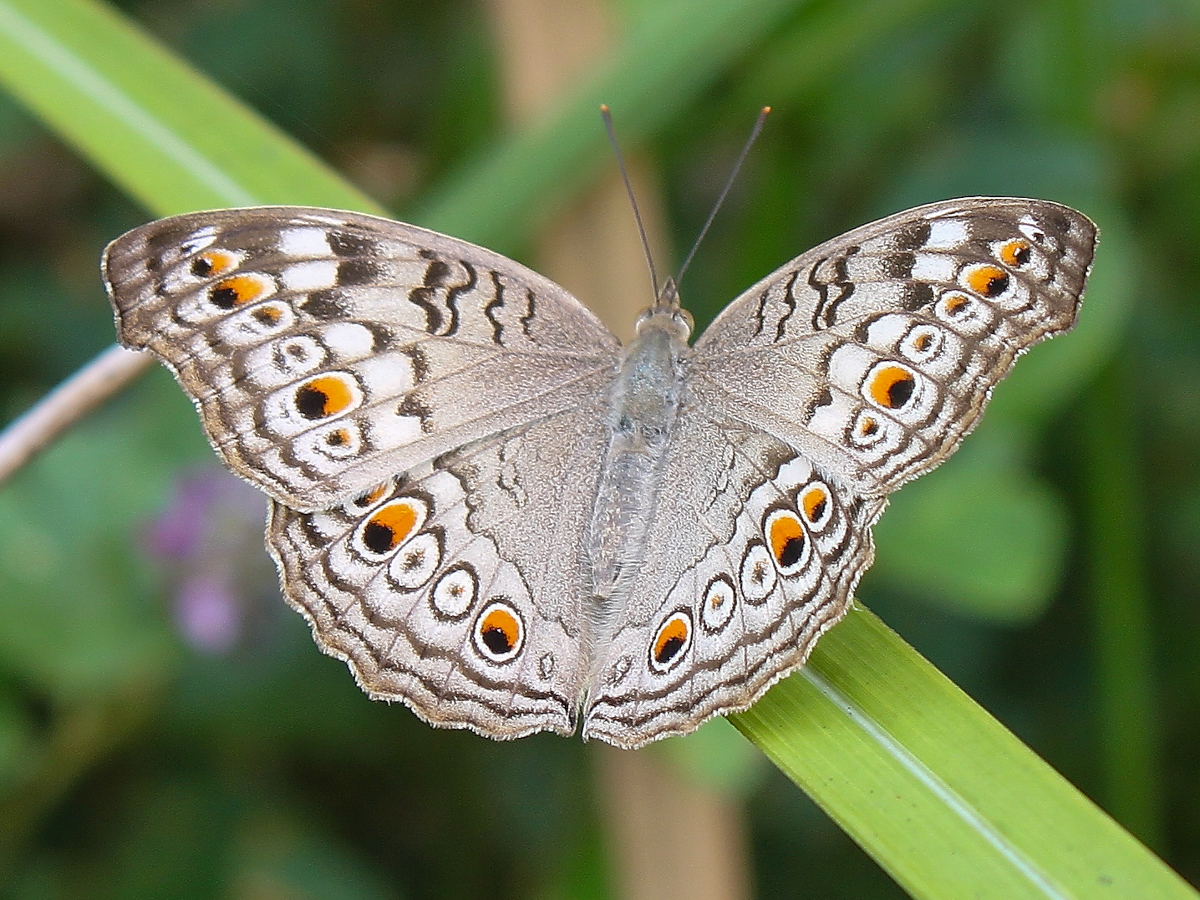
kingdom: Animalia
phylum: Arthropoda
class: Insecta
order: Lepidoptera
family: Nymphalidae
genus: Junonia
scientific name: Junonia atlites
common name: Grey pansy
